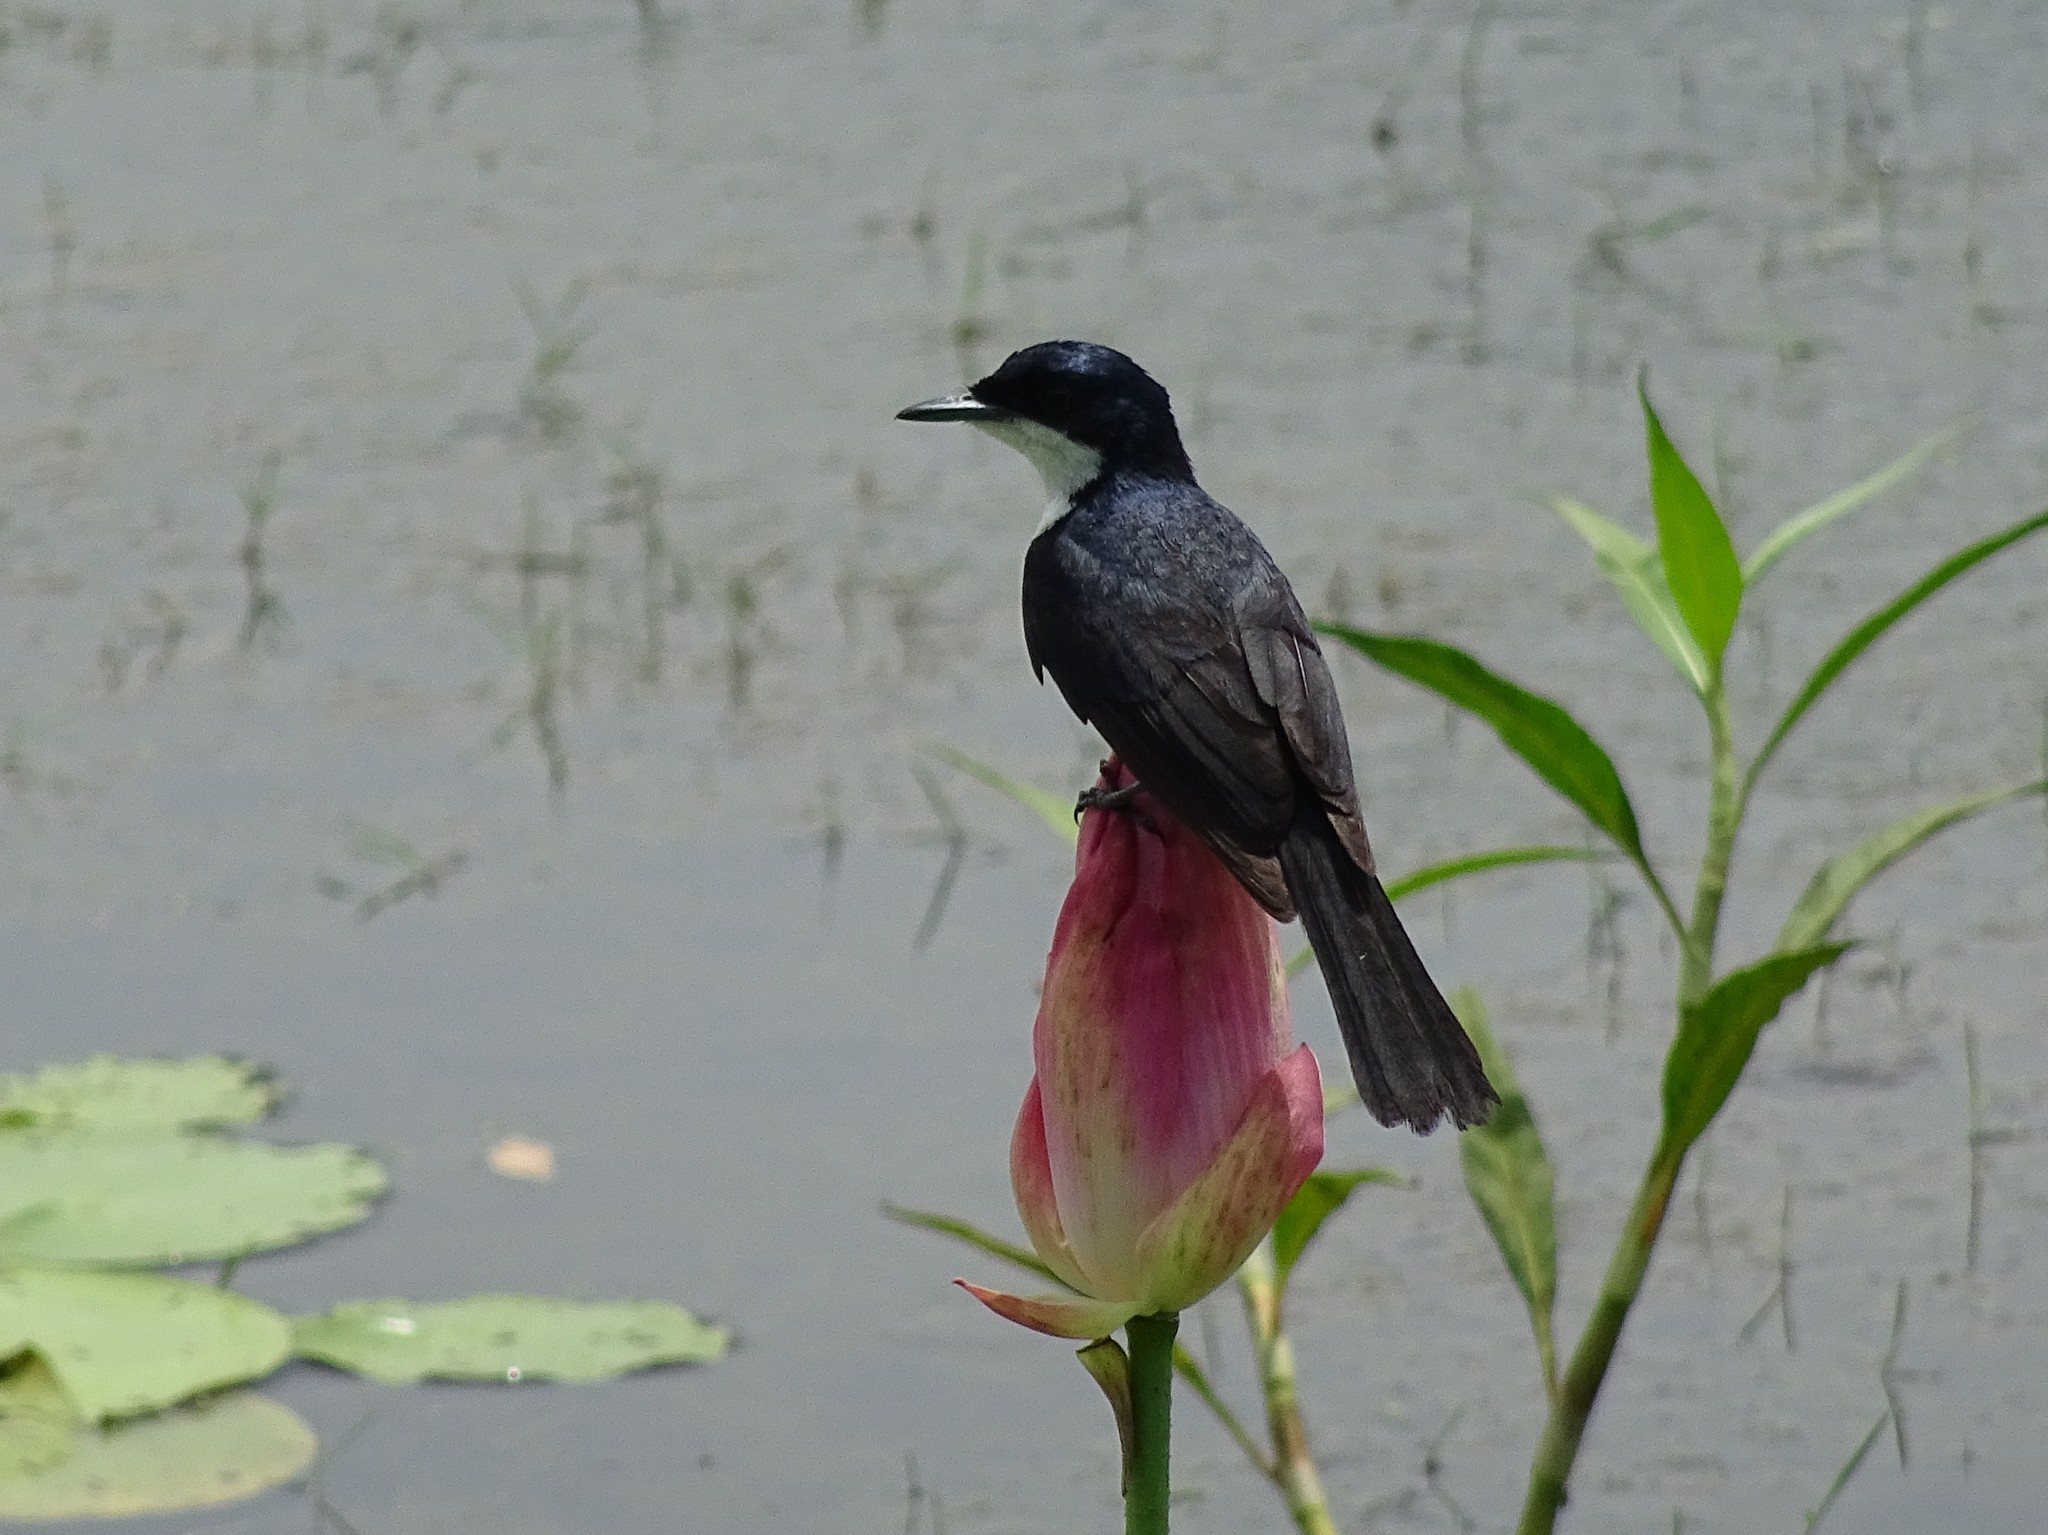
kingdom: Animalia
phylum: Chordata
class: Aves
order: Passeriformes
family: Monarchidae
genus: Myiagra
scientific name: Myiagra nana
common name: Paperbark flycatcher
